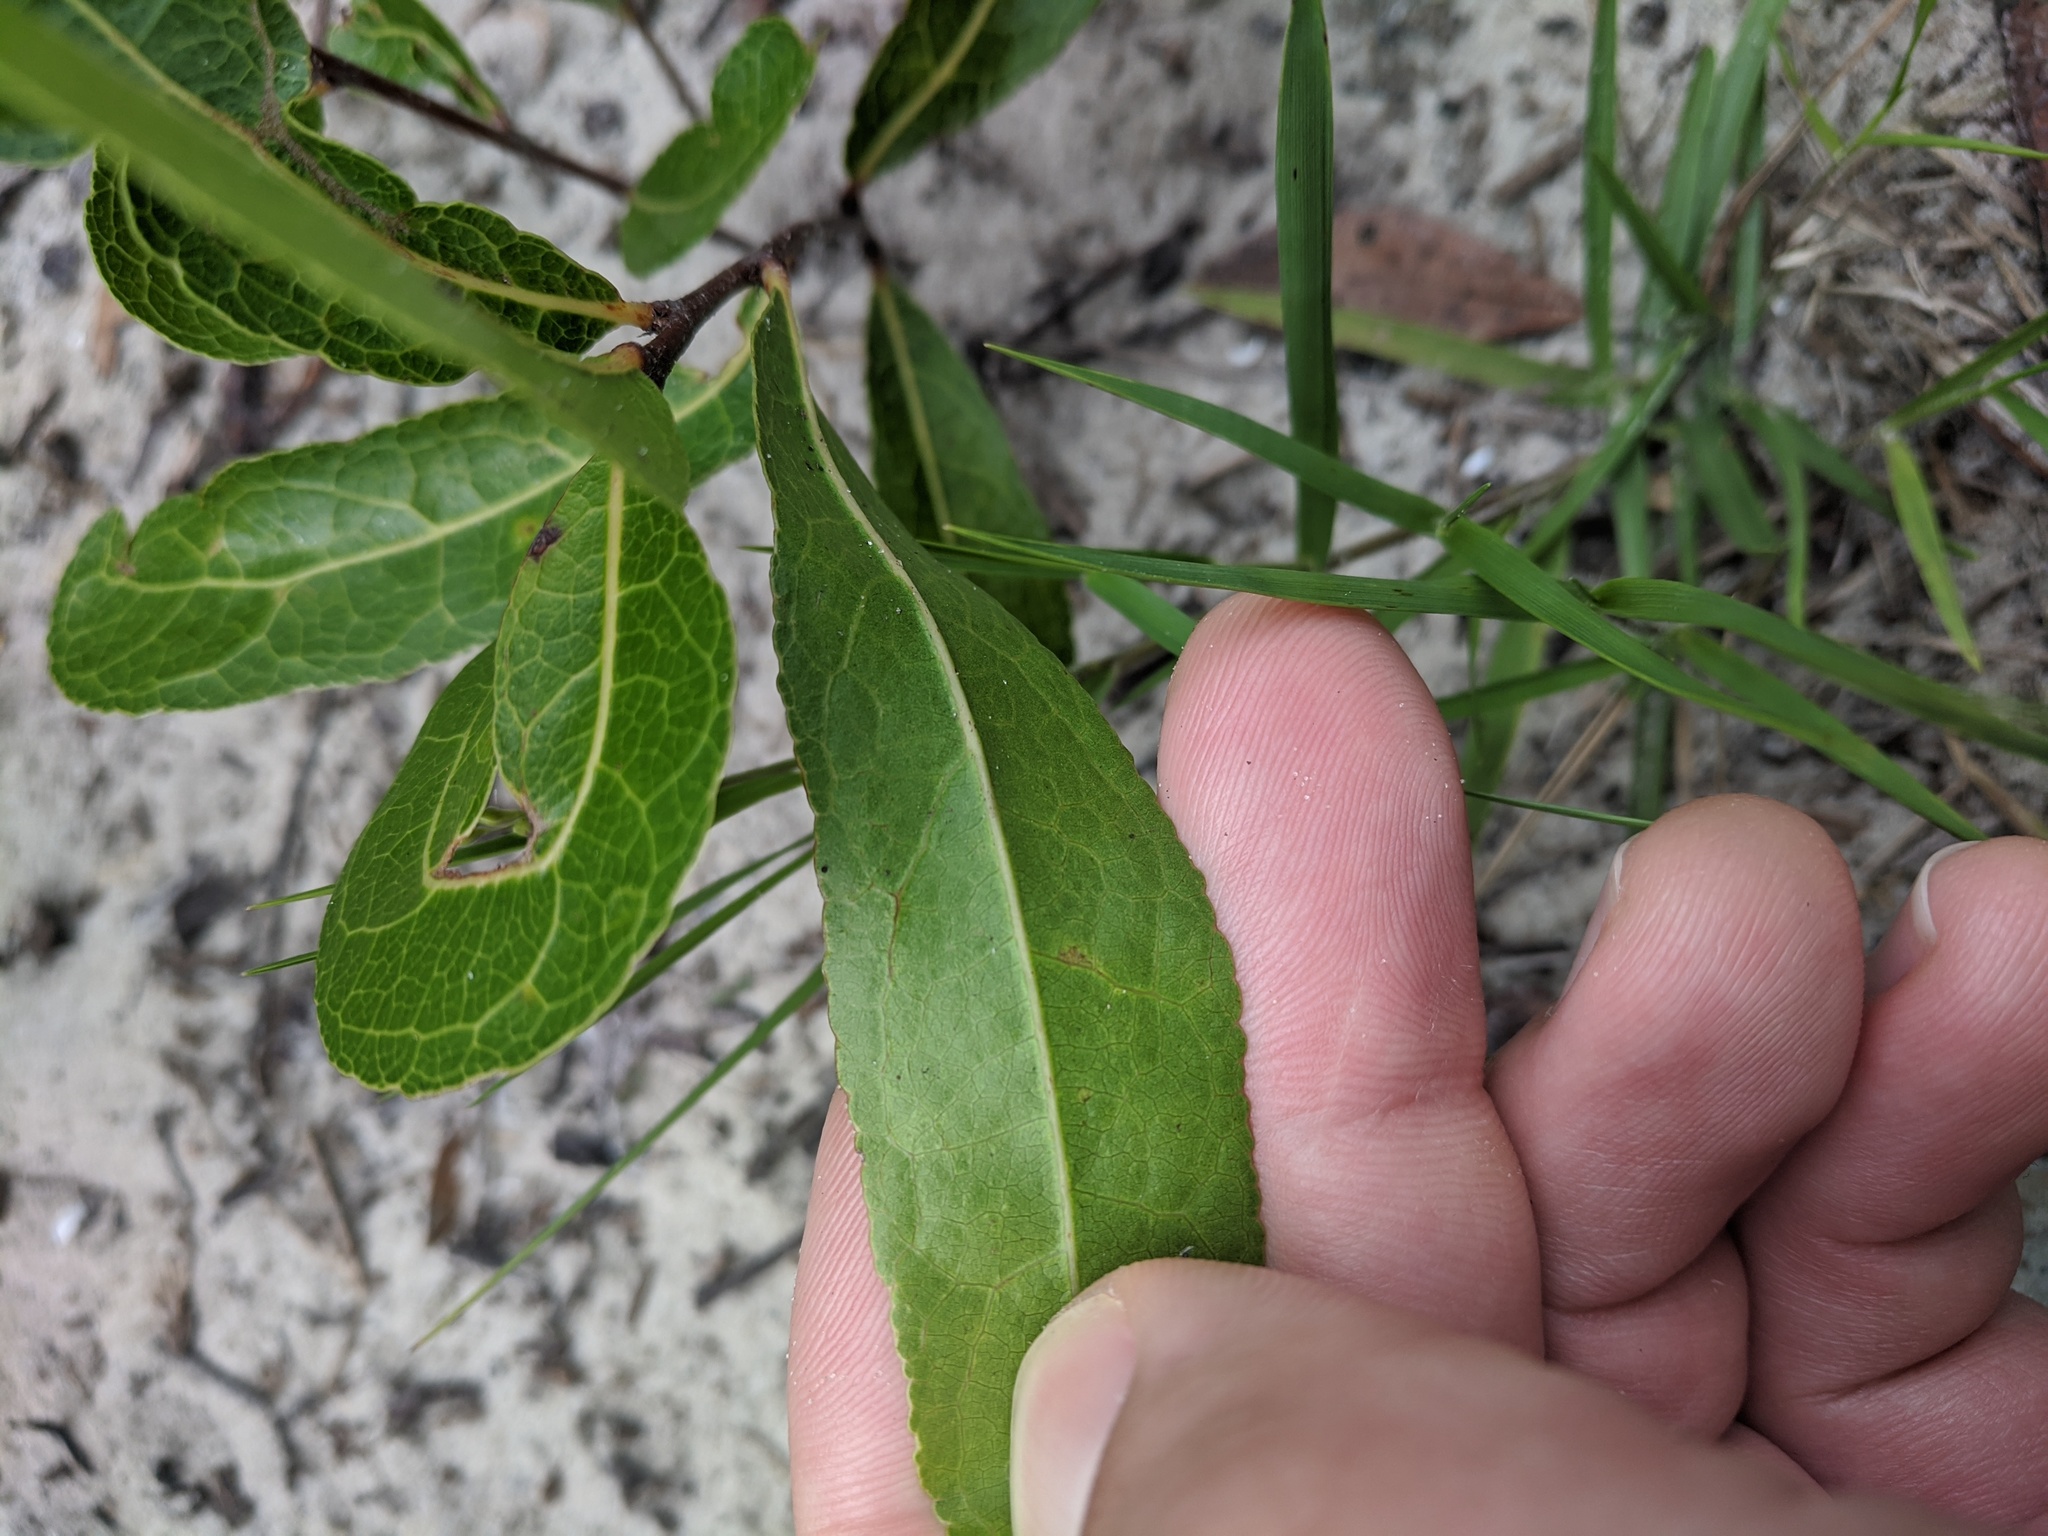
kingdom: Plantae
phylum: Tracheophyta
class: Magnoliopsida
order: Malpighiales
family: Chrysobalanaceae
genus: Geobalanus
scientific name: Geobalanus oblongifolius
